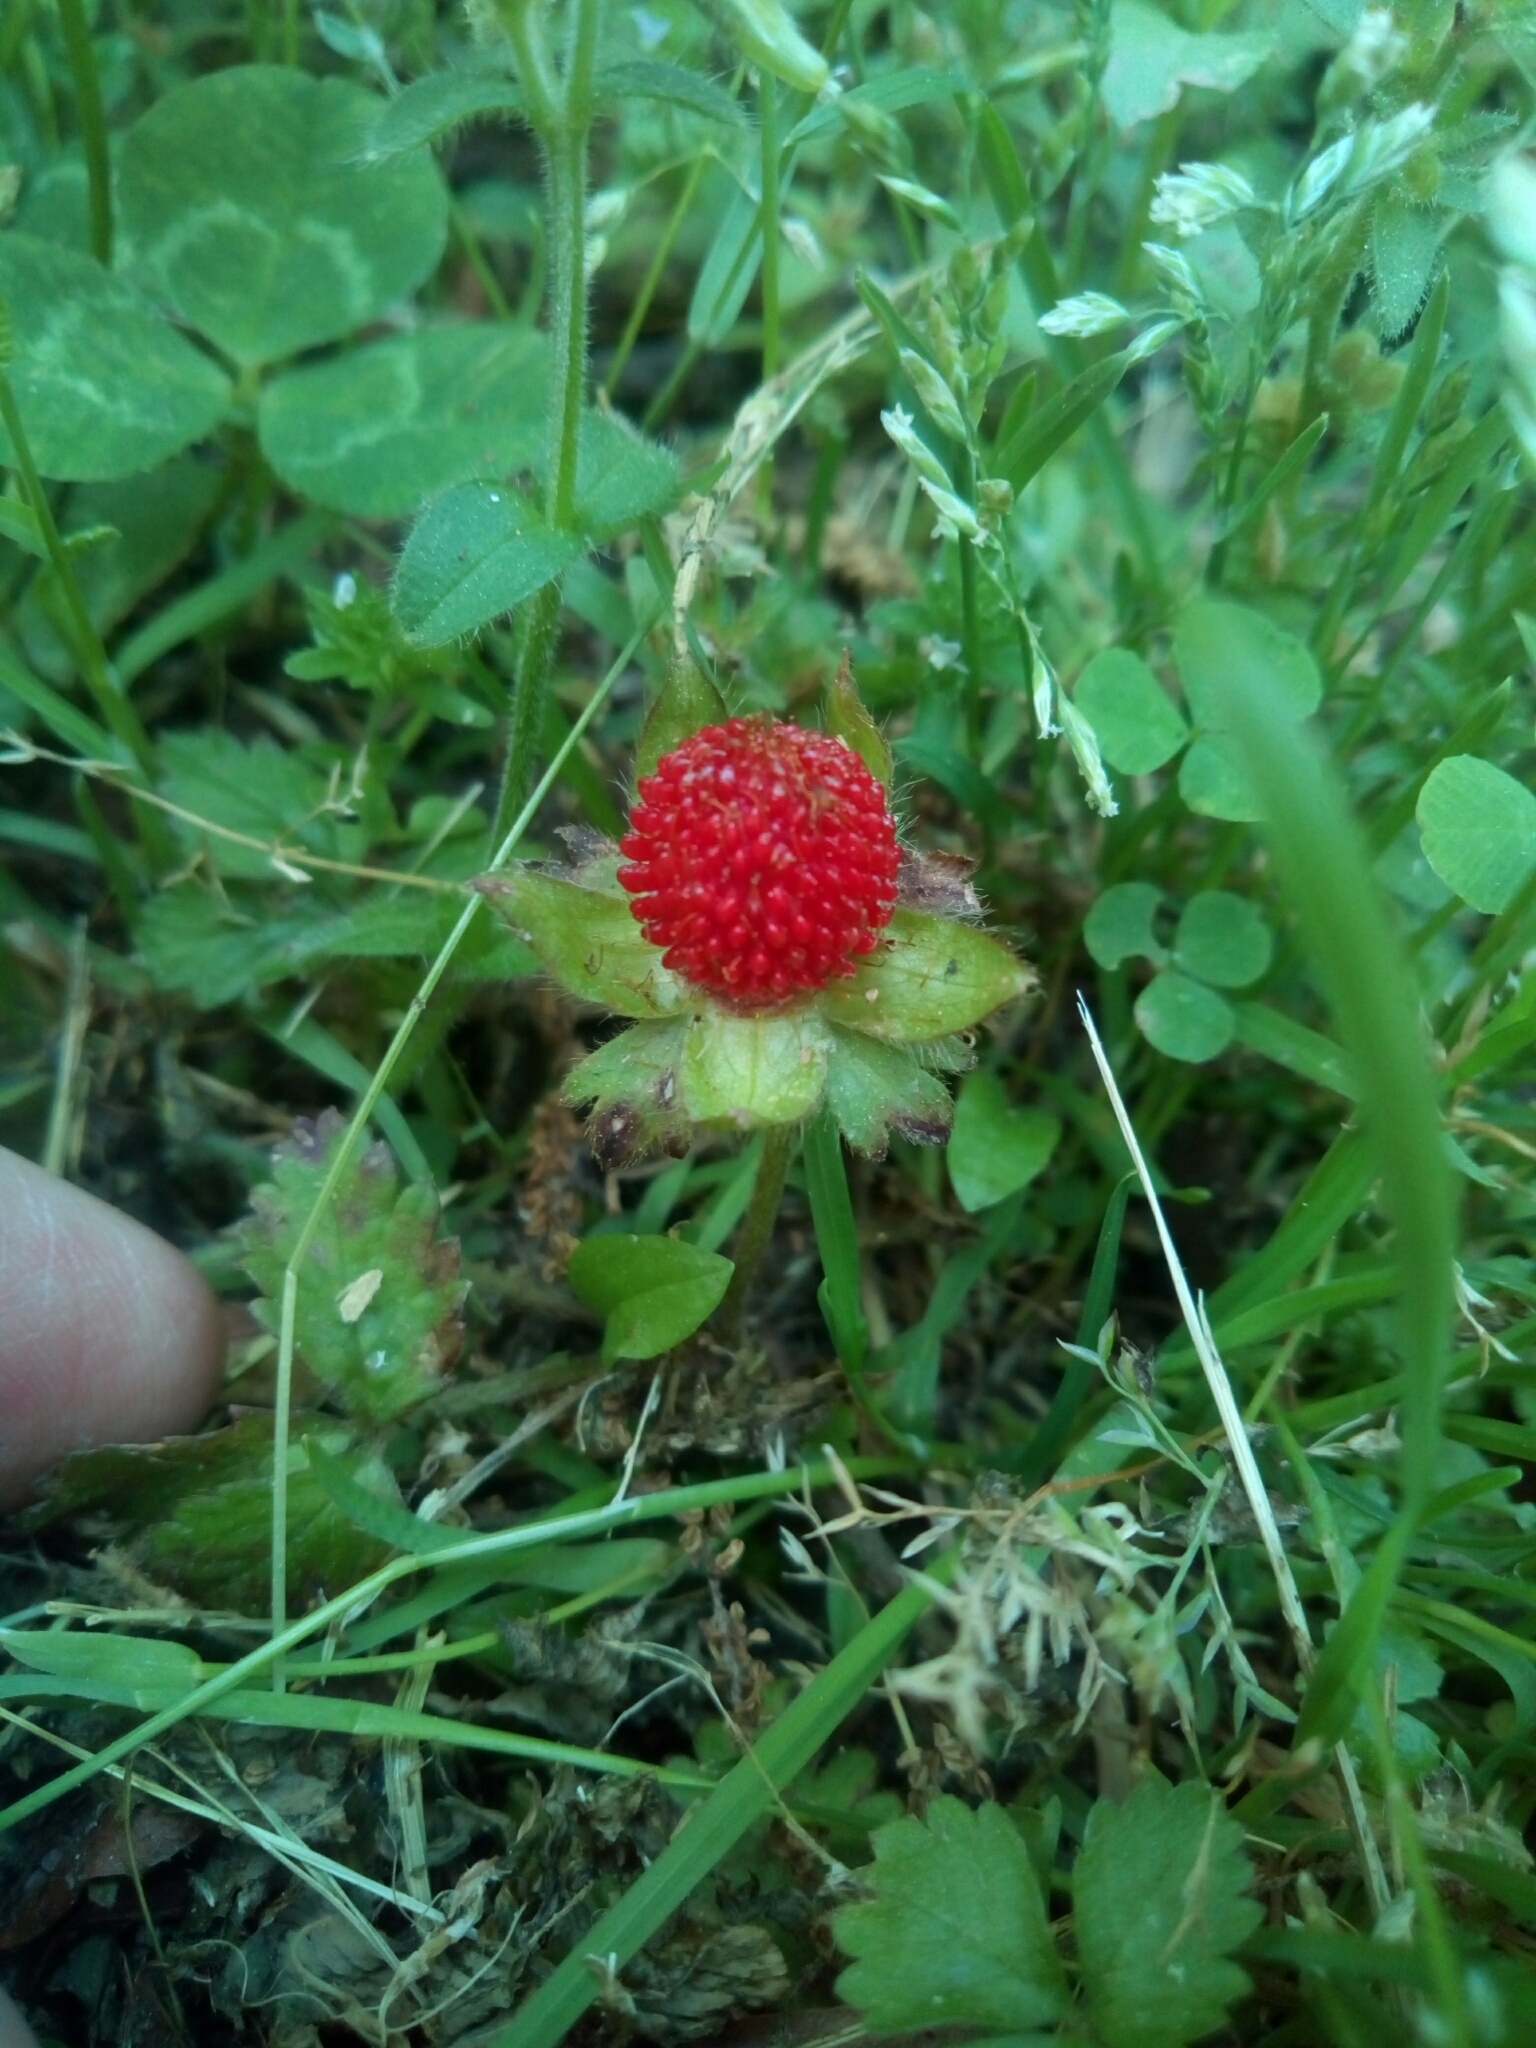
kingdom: Plantae
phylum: Tracheophyta
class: Magnoliopsida
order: Rosales
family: Rosaceae
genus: Potentilla
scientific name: Potentilla indica
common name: Yellow-flowered strawberry
